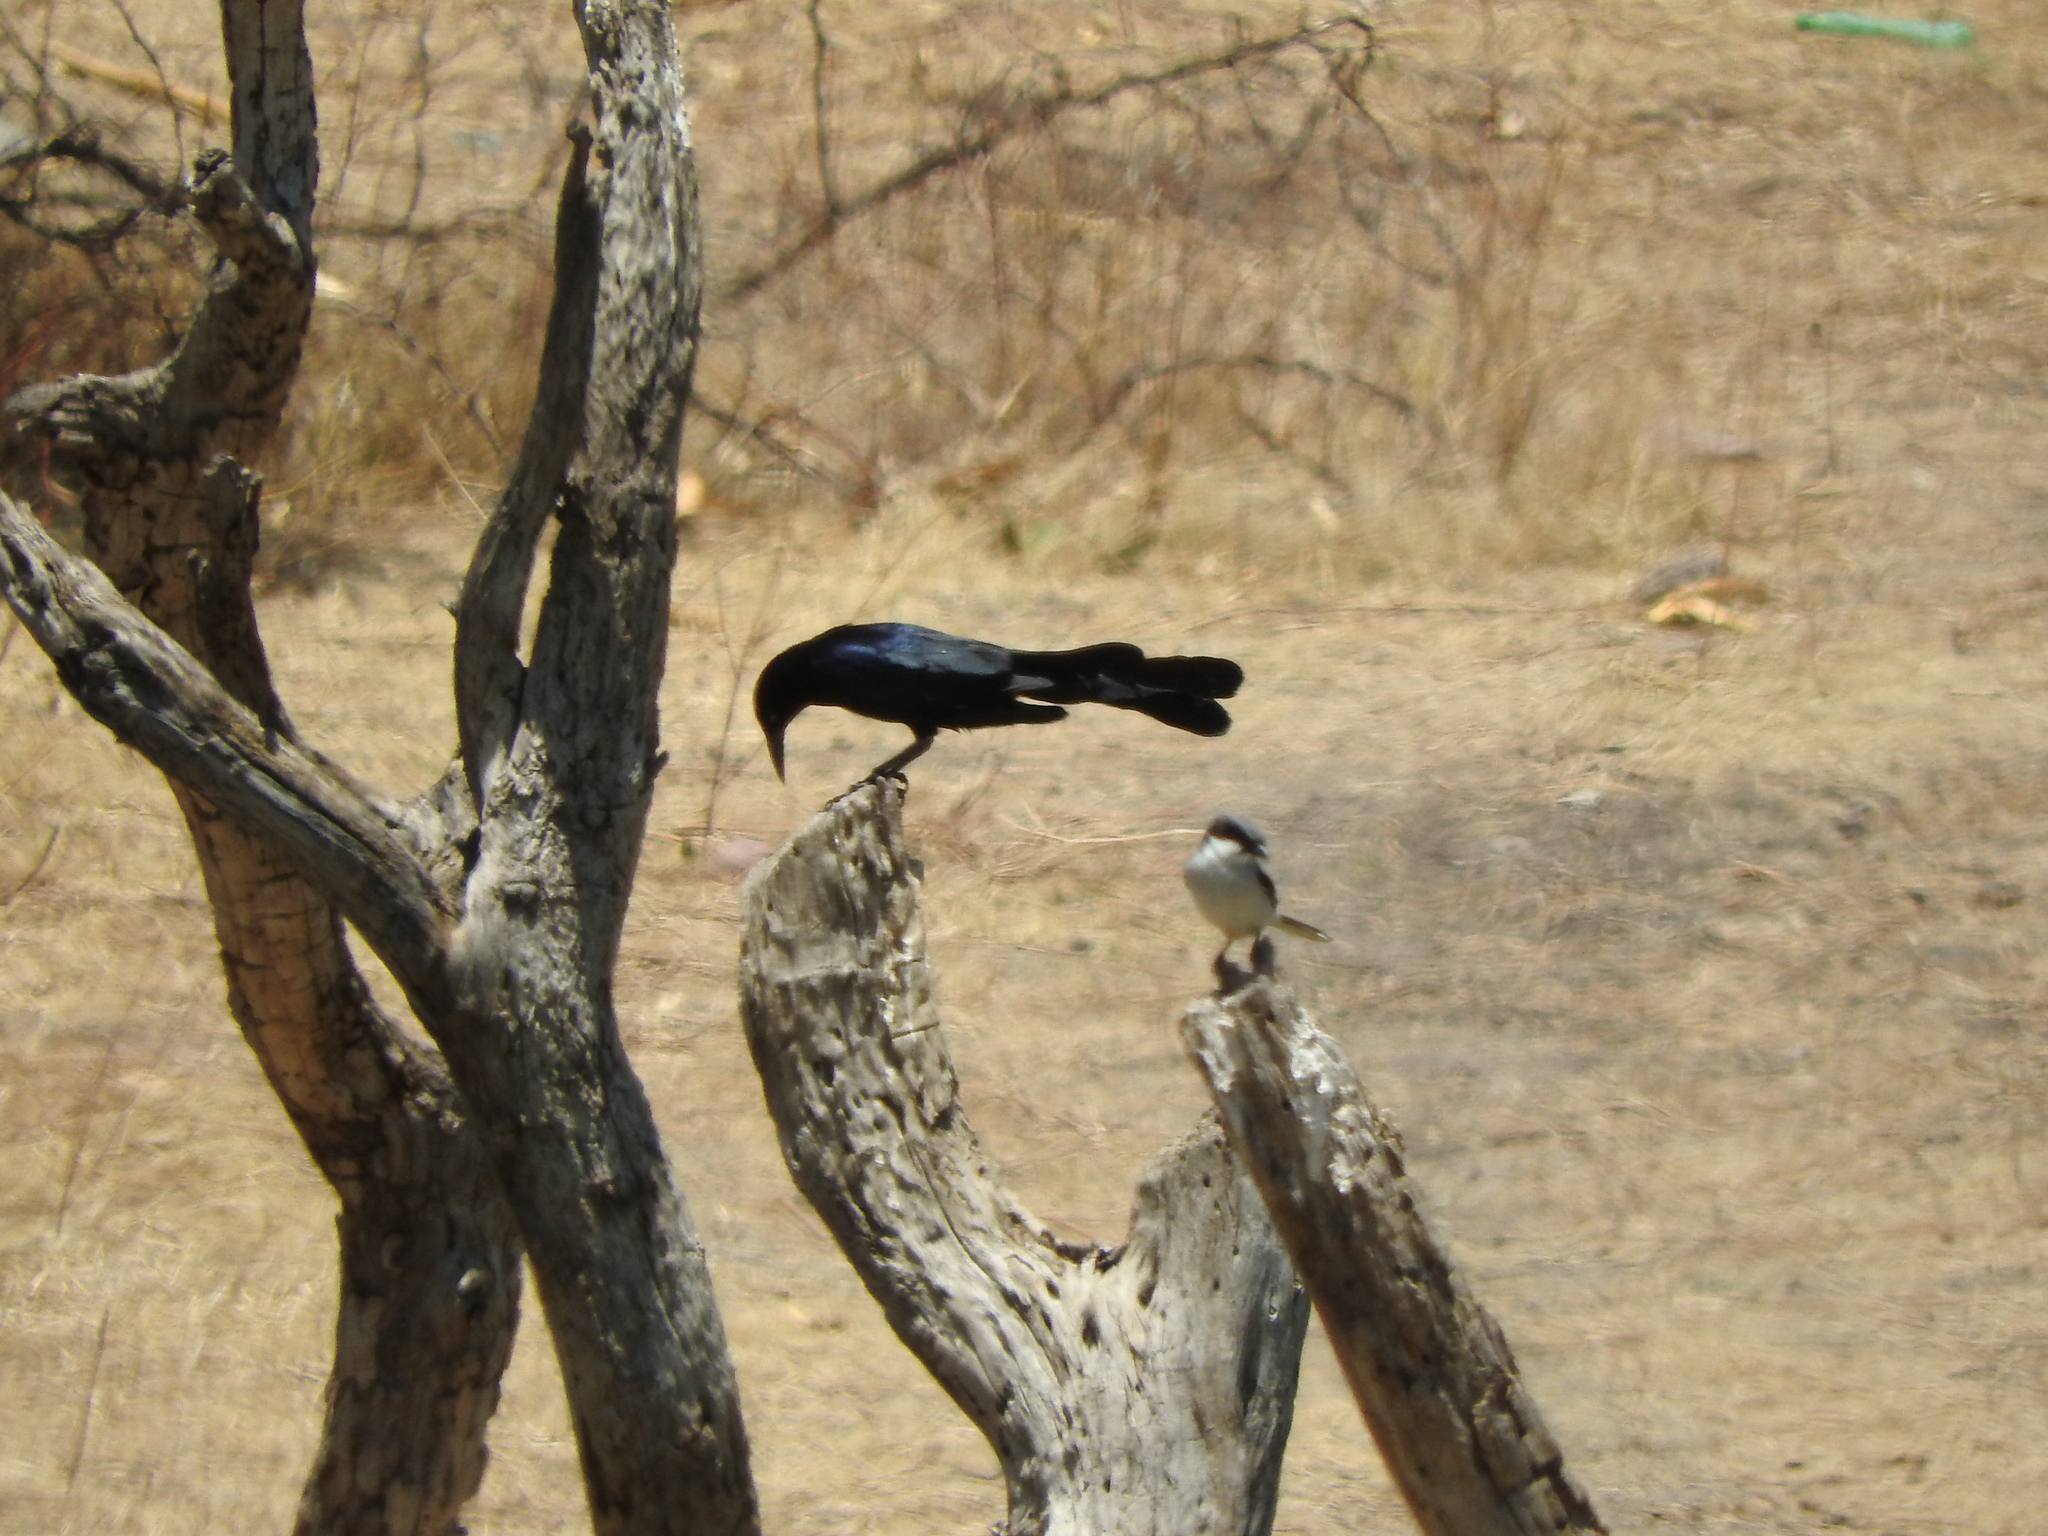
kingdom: Animalia
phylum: Chordata
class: Aves
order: Passeriformes
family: Icteridae
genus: Quiscalus
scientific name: Quiscalus mexicanus
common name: Great-tailed grackle
